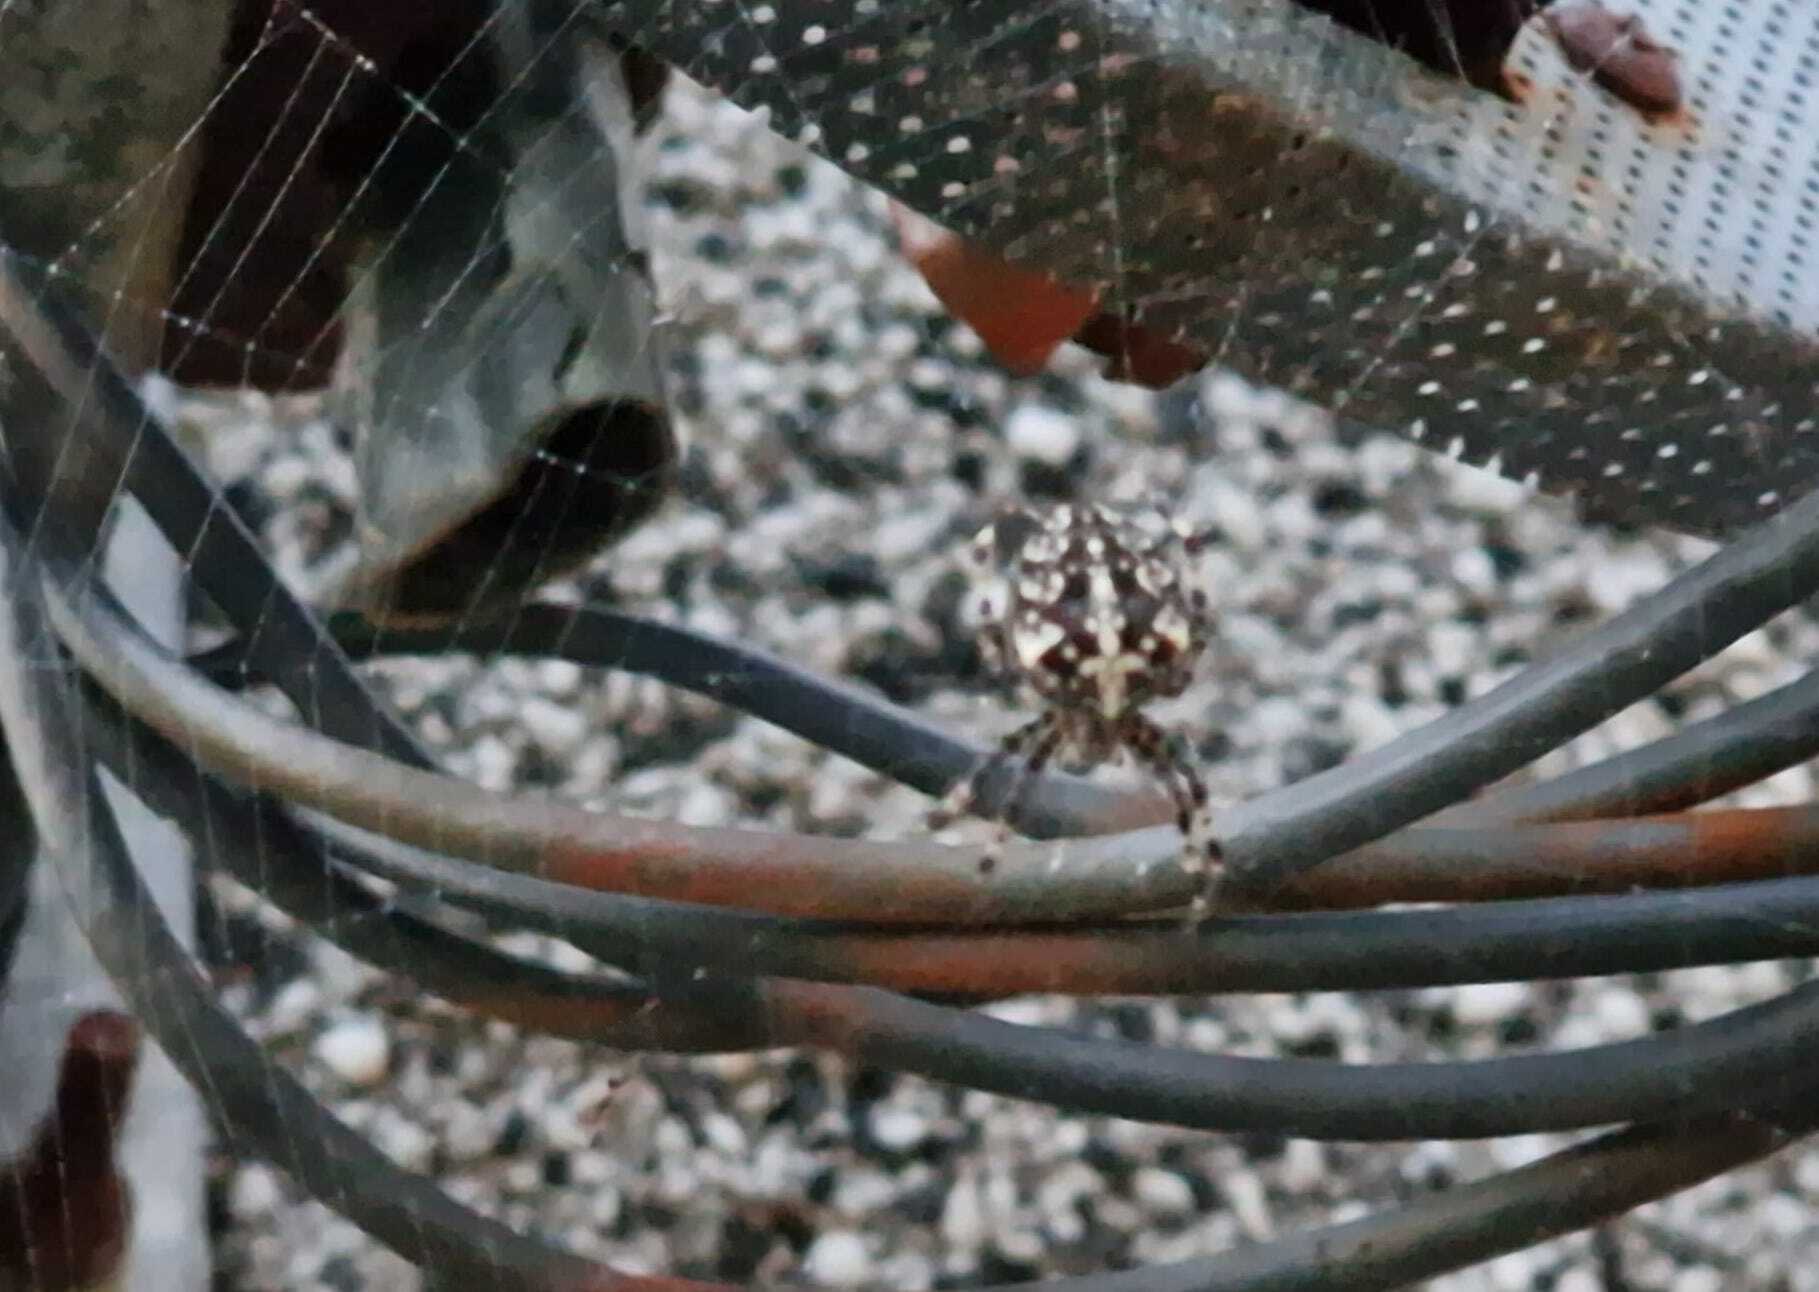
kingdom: Animalia
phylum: Arthropoda
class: Arachnida
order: Araneae
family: Araneidae
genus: Araneus
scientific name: Araneus diadematus
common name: Cross orbweaver
